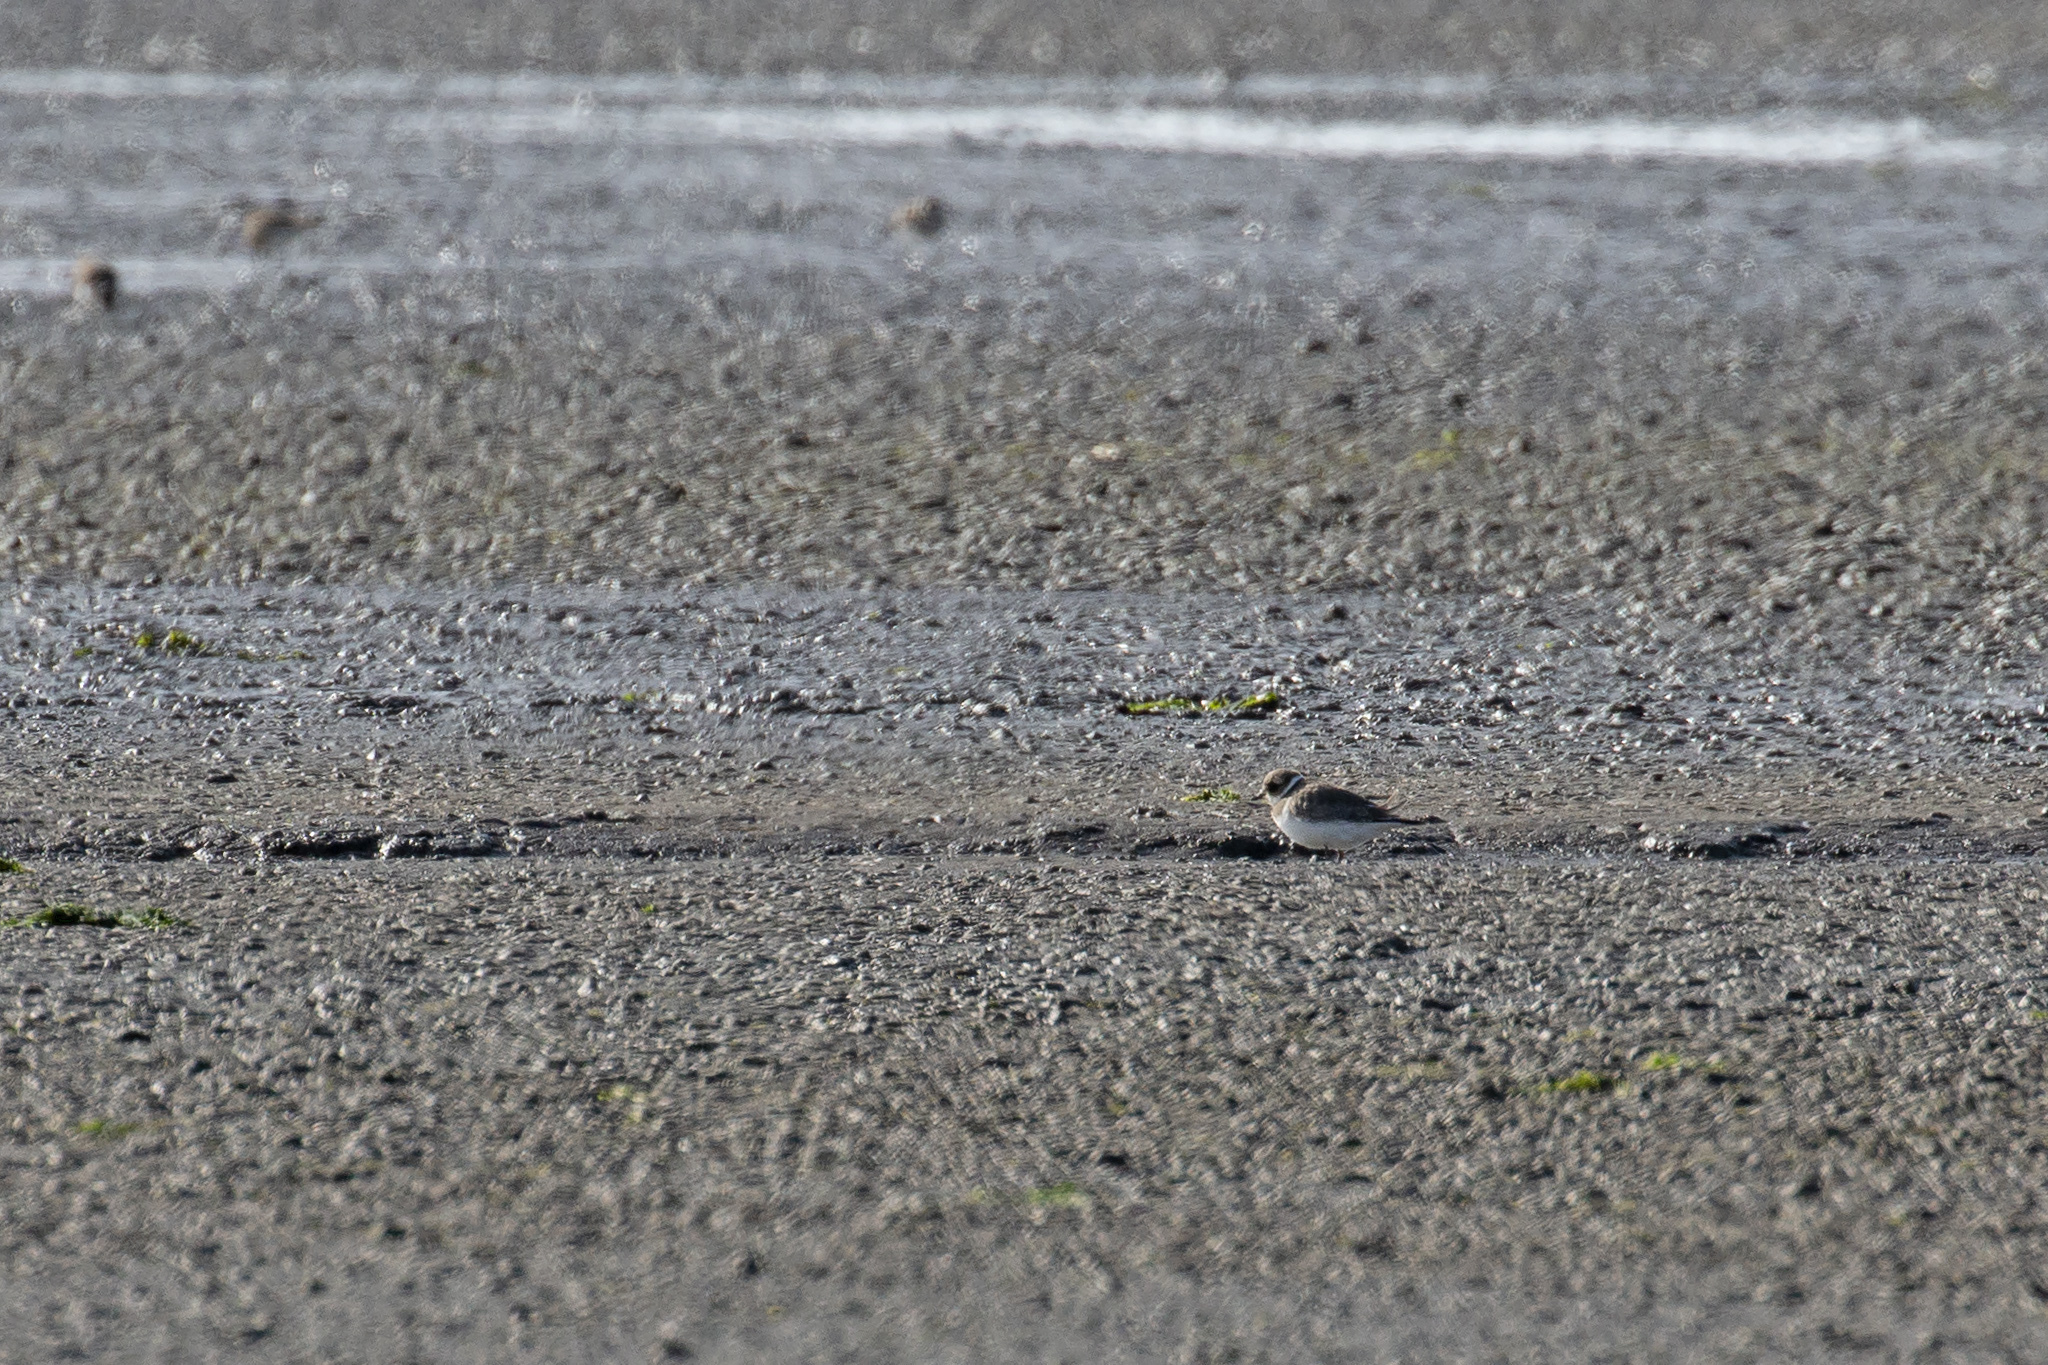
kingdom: Animalia
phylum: Chordata
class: Aves
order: Charadriiformes
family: Charadriidae
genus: Charadrius
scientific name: Charadrius hiaticula
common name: Common ringed plover
